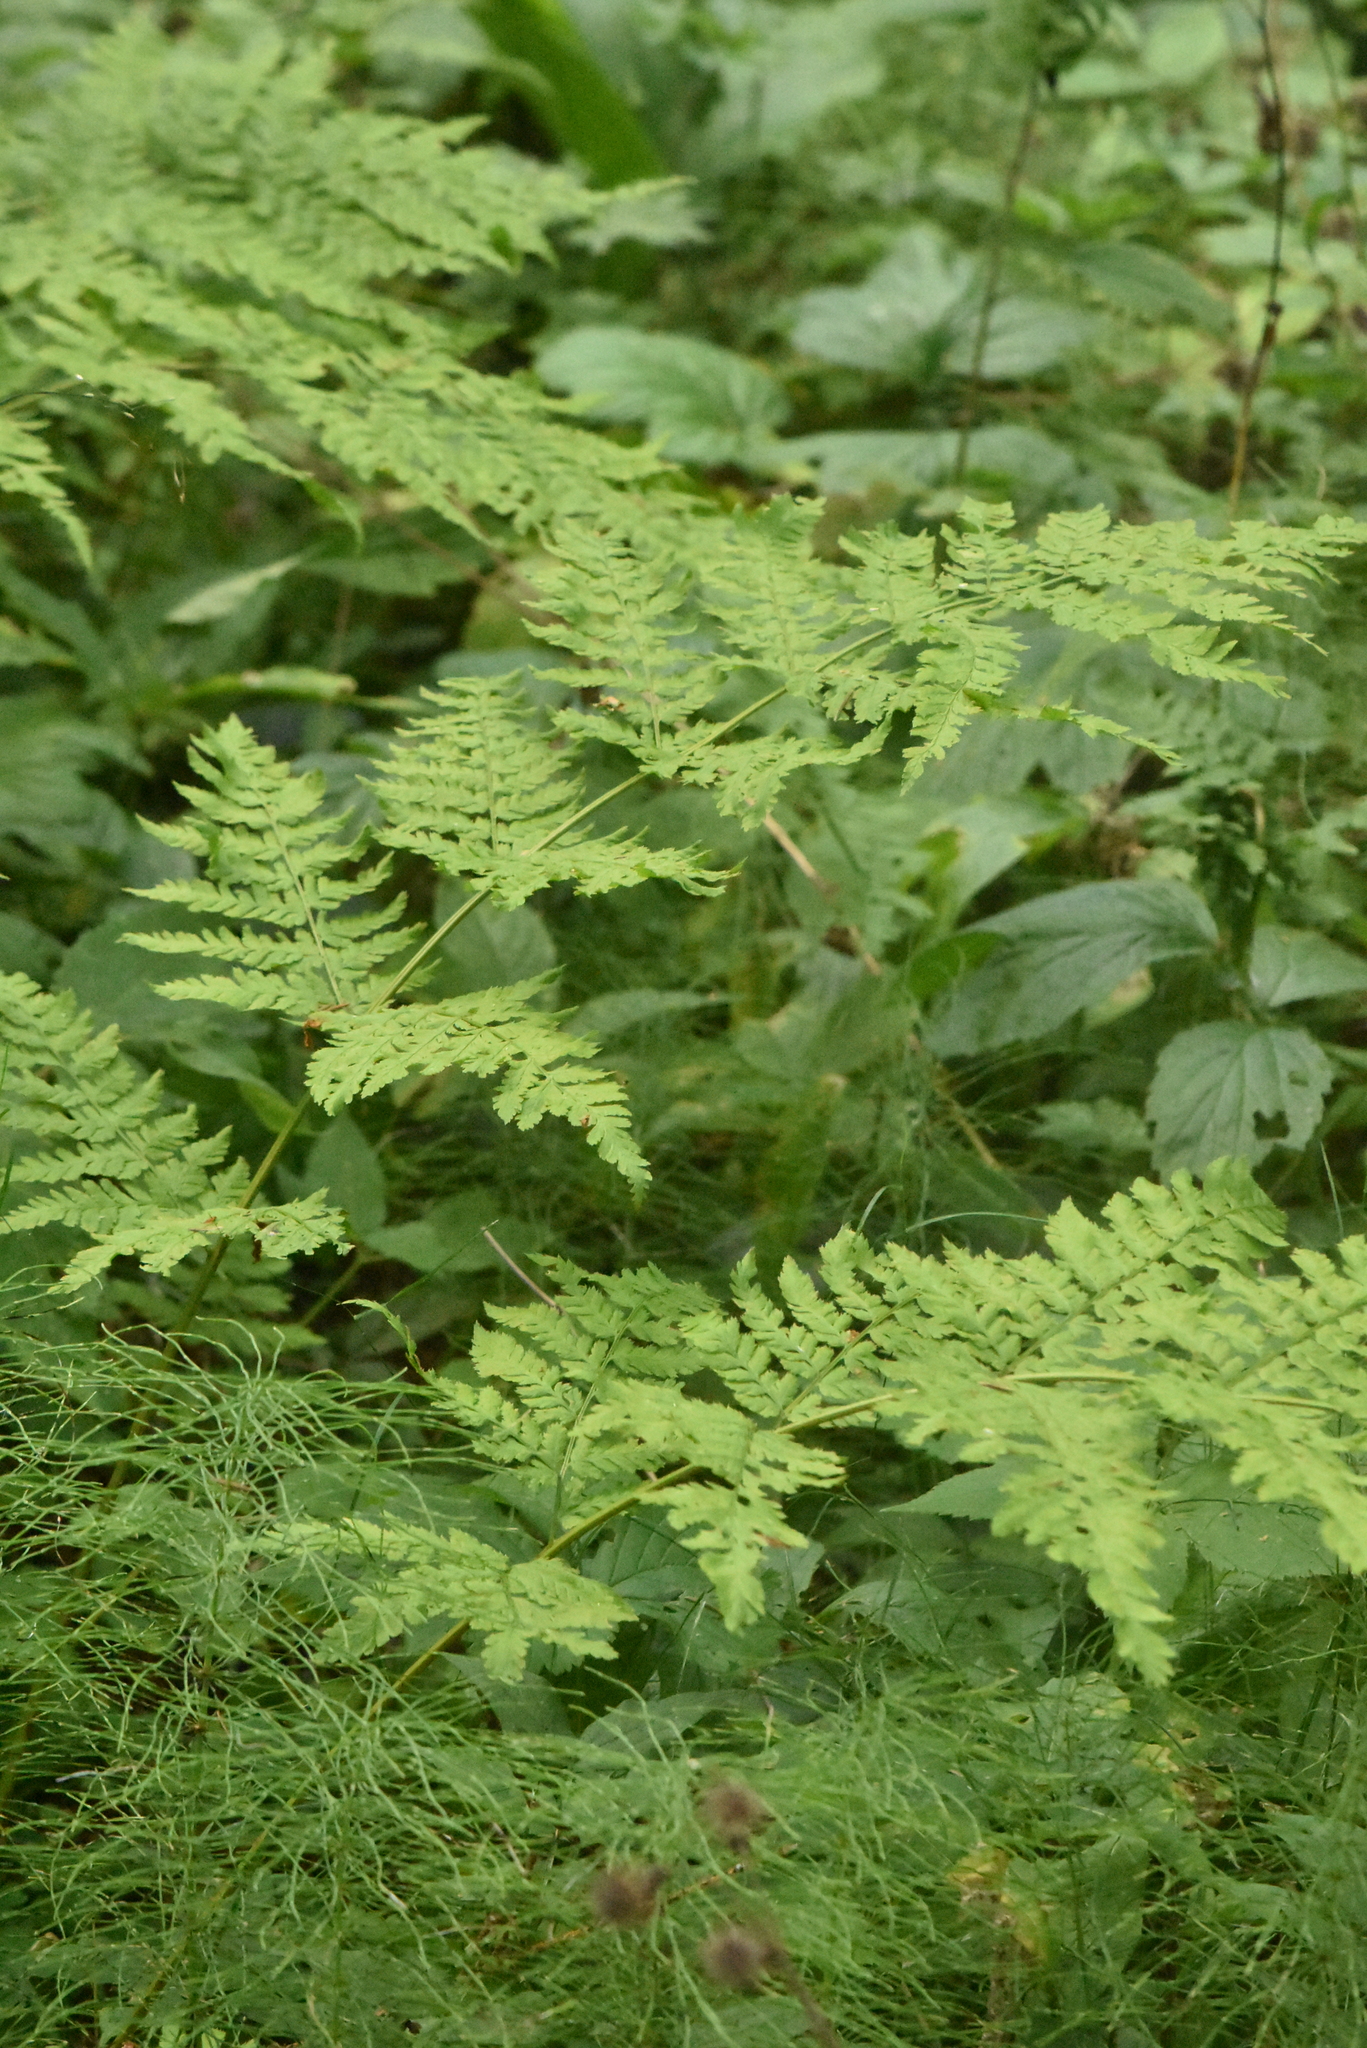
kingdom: Plantae
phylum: Tracheophyta
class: Polypodiopsida
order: Polypodiales
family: Dryopteridaceae
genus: Dryopteris
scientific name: Dryopteris expansa
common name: Northern buckler fern
